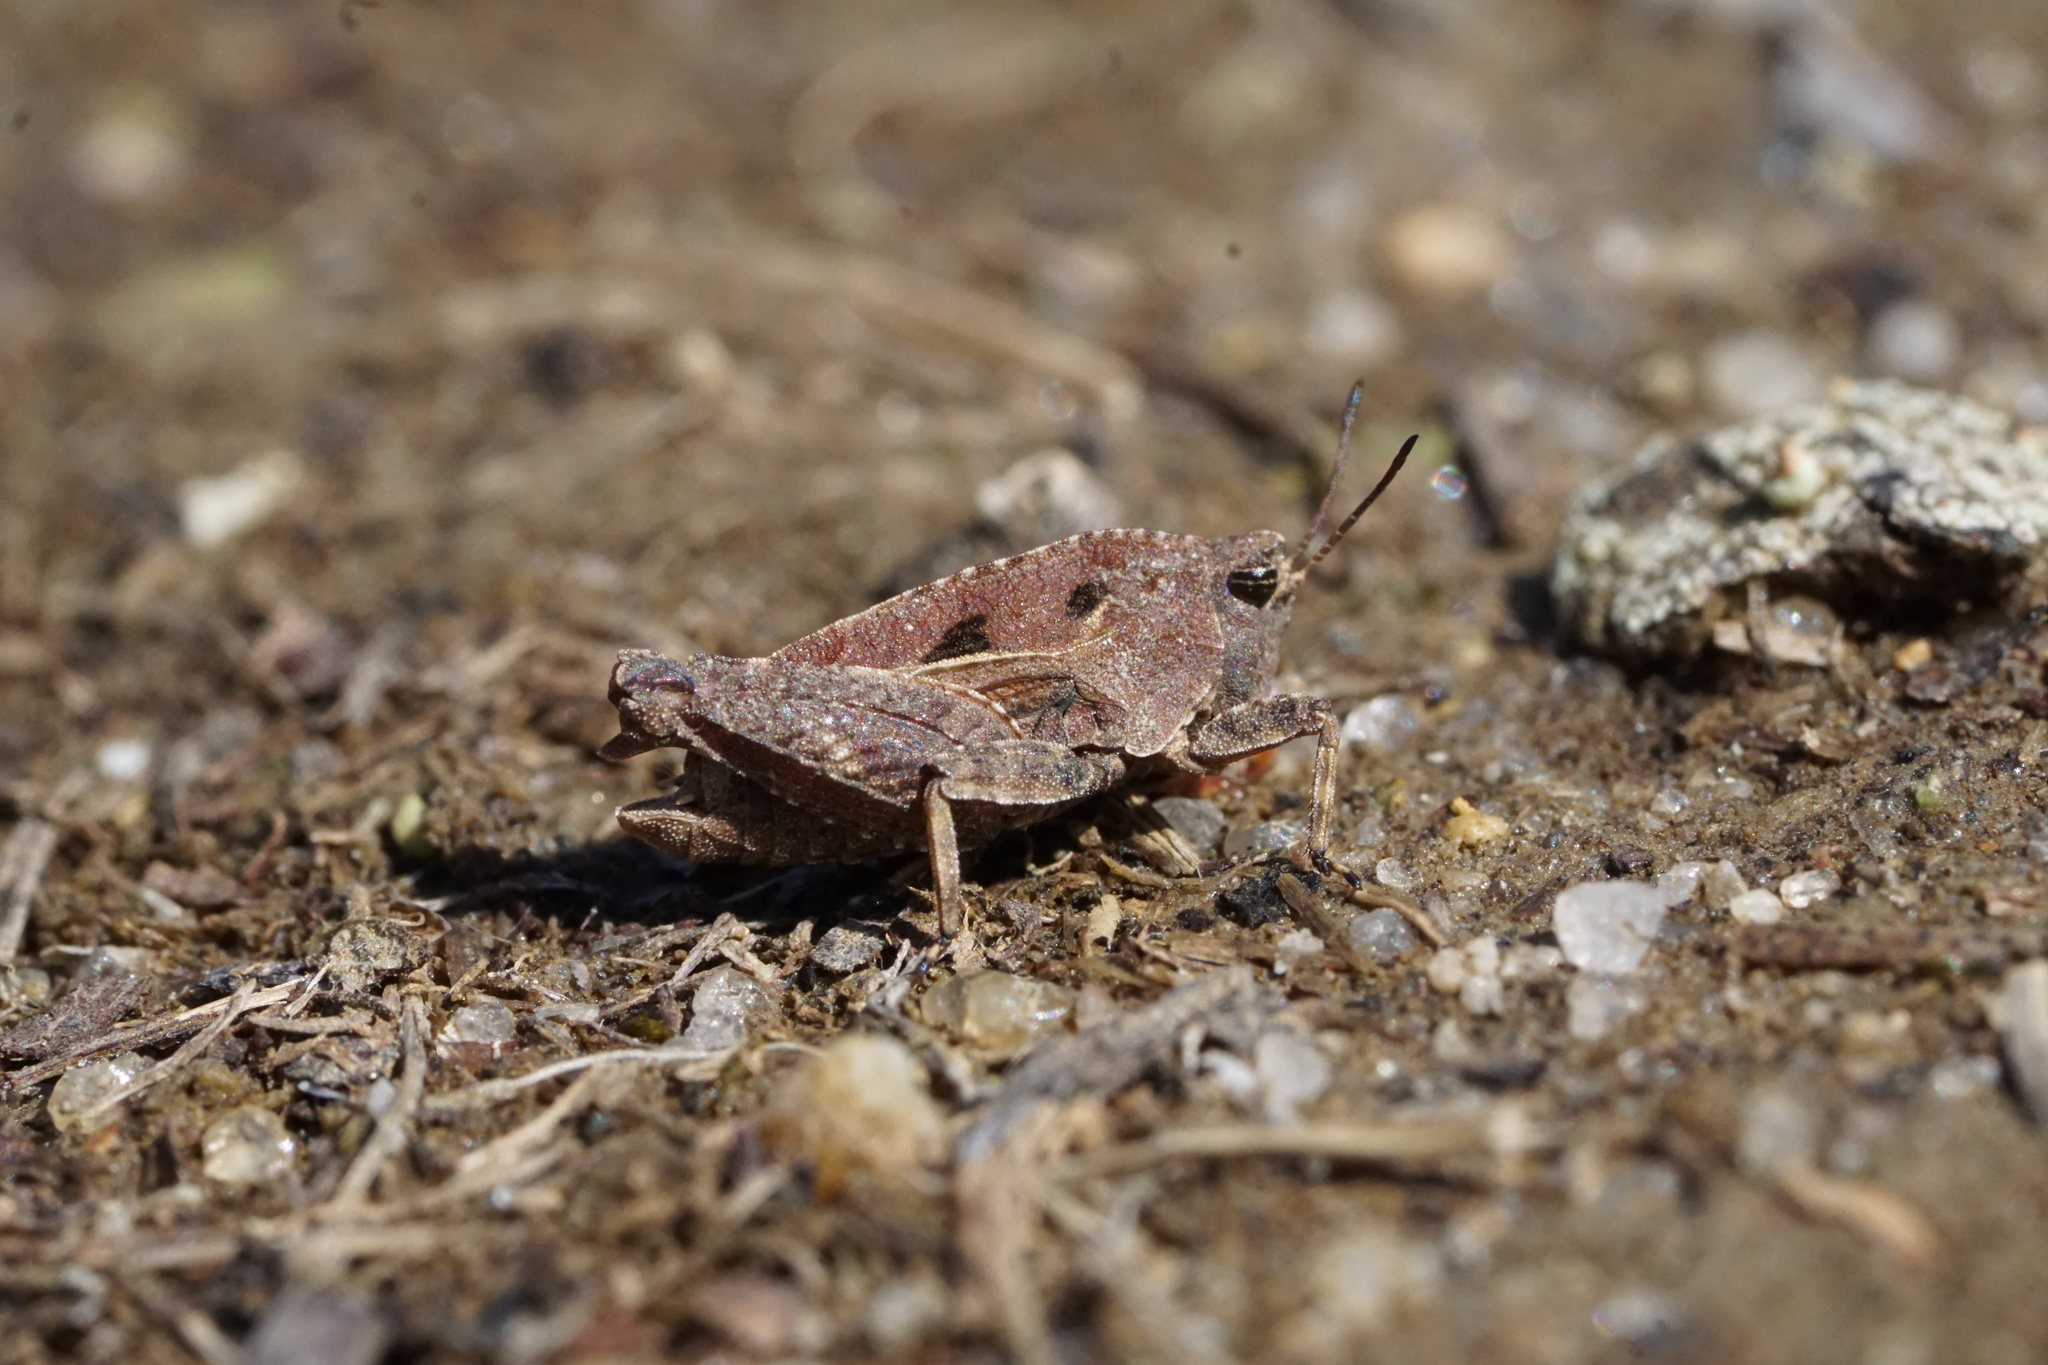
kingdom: Animalia
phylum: Arthropoda
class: Insecta
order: Orthoptera
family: Tetrigidae
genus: Nomotettix
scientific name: Nomotettix cristatus
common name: Crested grouse locust
